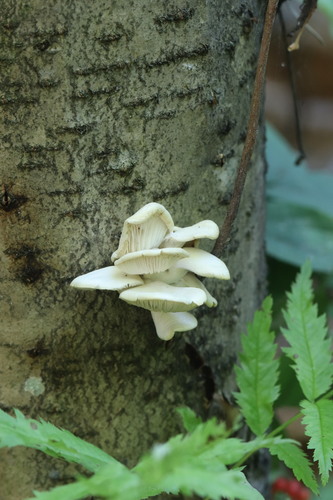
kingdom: Fungi
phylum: Basidiomycota
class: Agaricomycetes
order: Agaricales
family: Pleurotaceae
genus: Pleurotus
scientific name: Pleurotus pulmonarius
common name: Pale oyster
